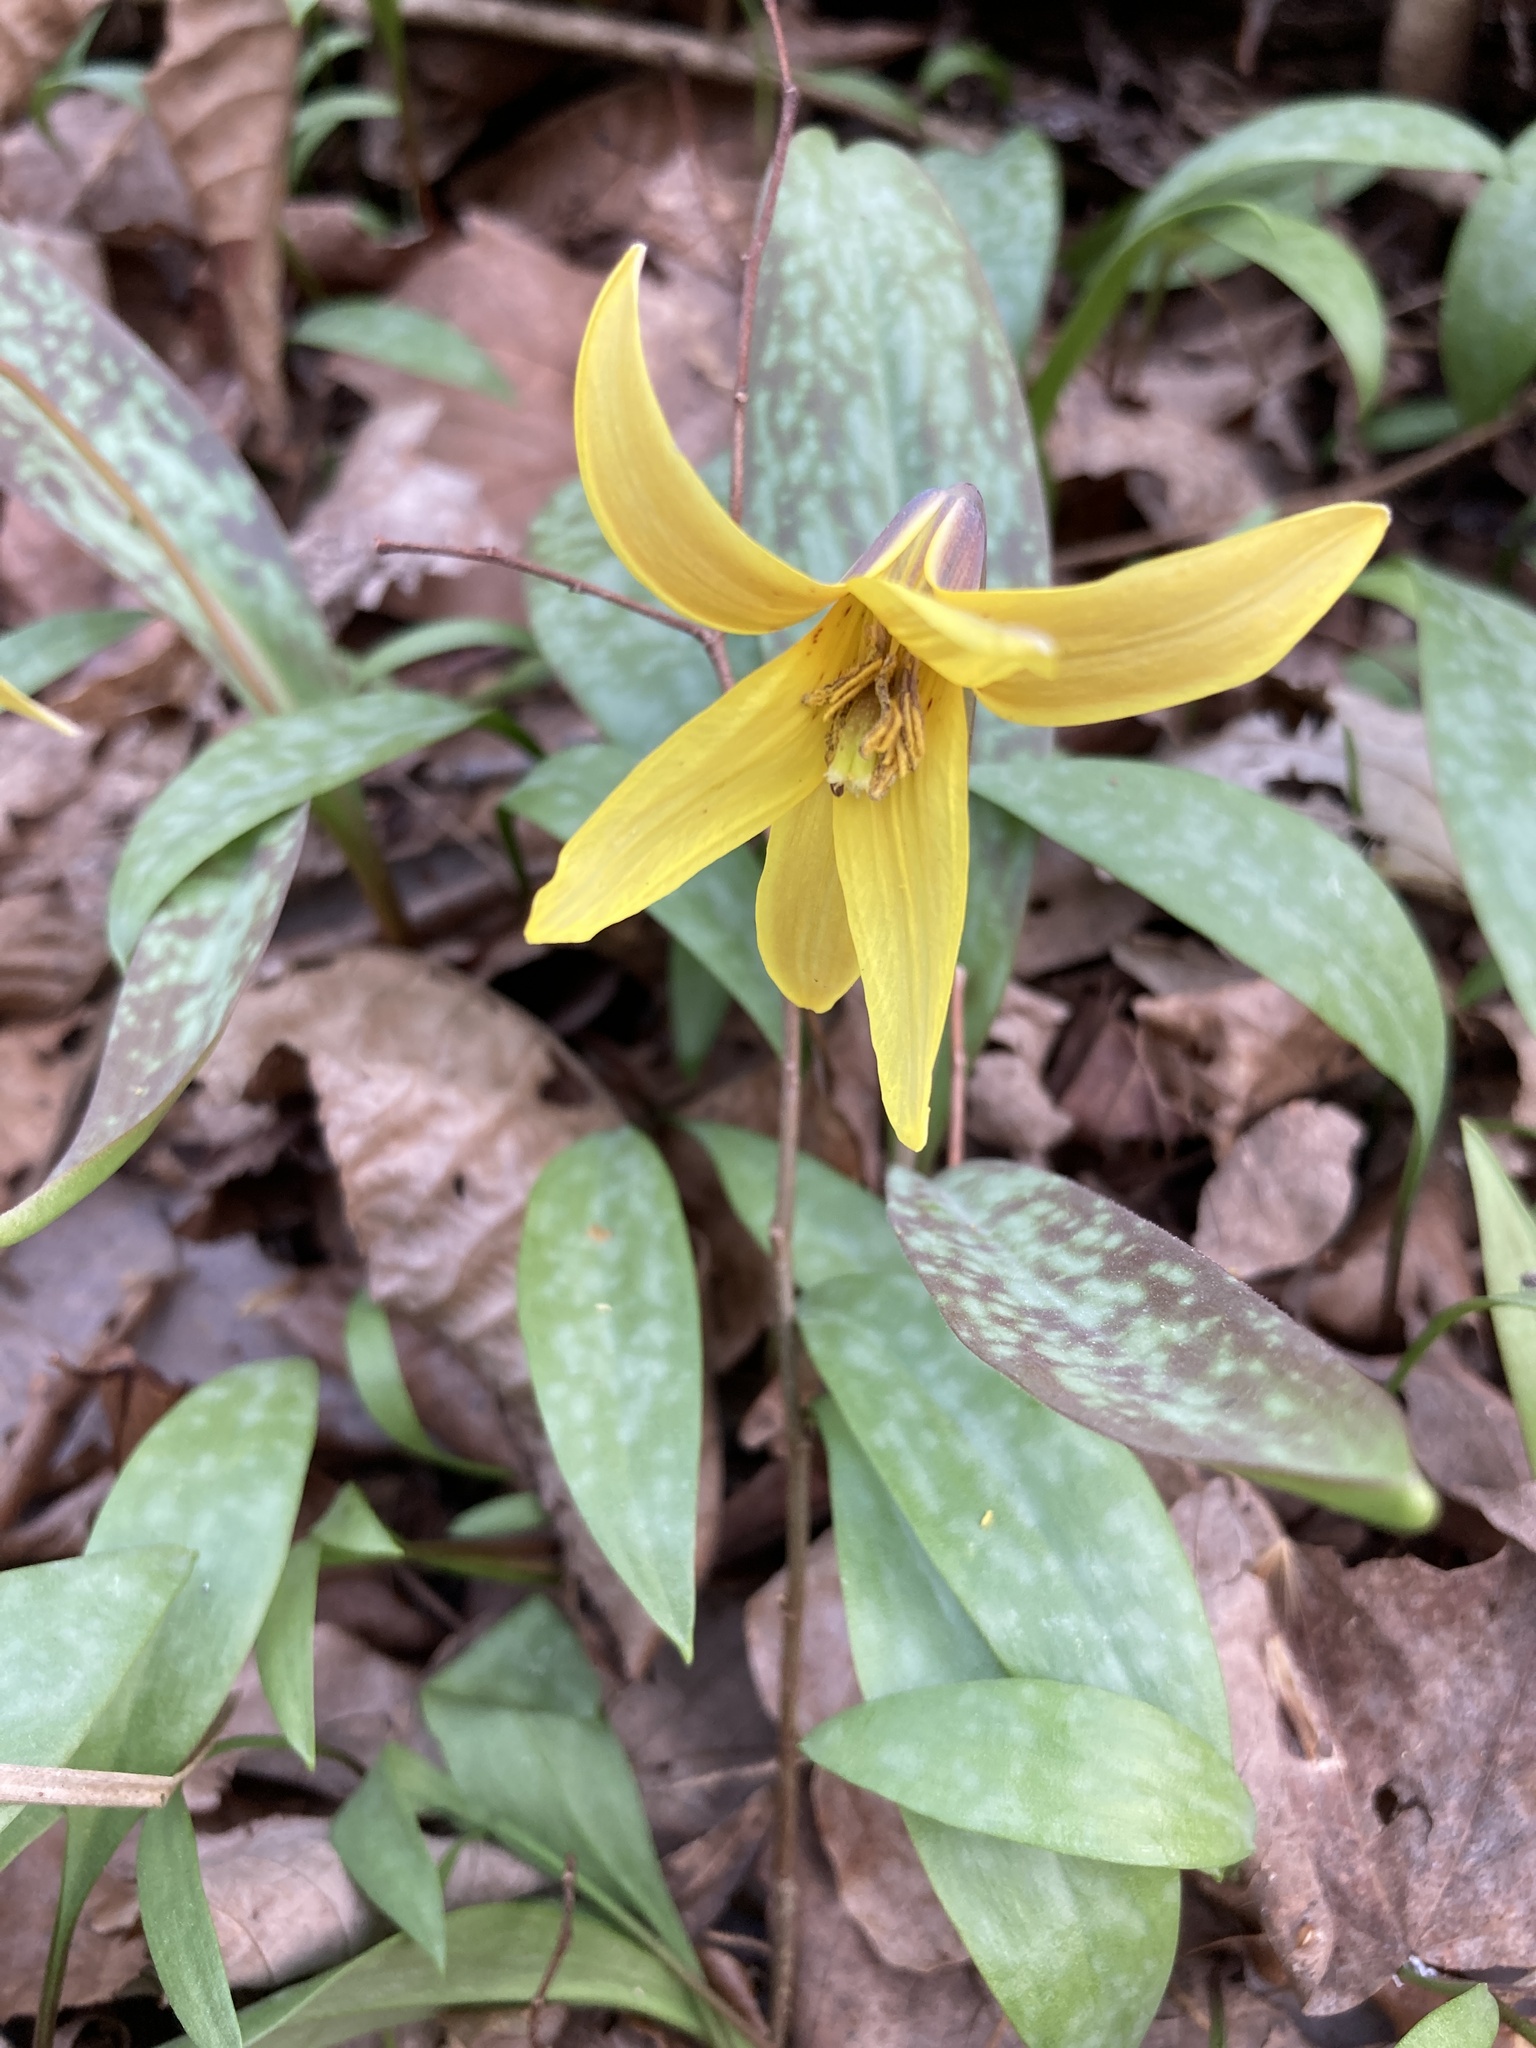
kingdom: Plantae
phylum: Tracheophyta
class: Liliopsida
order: Liliales
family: Liliaceae
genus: Erythronium
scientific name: Erythronium americanum
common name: Yellow adder's-tongue
